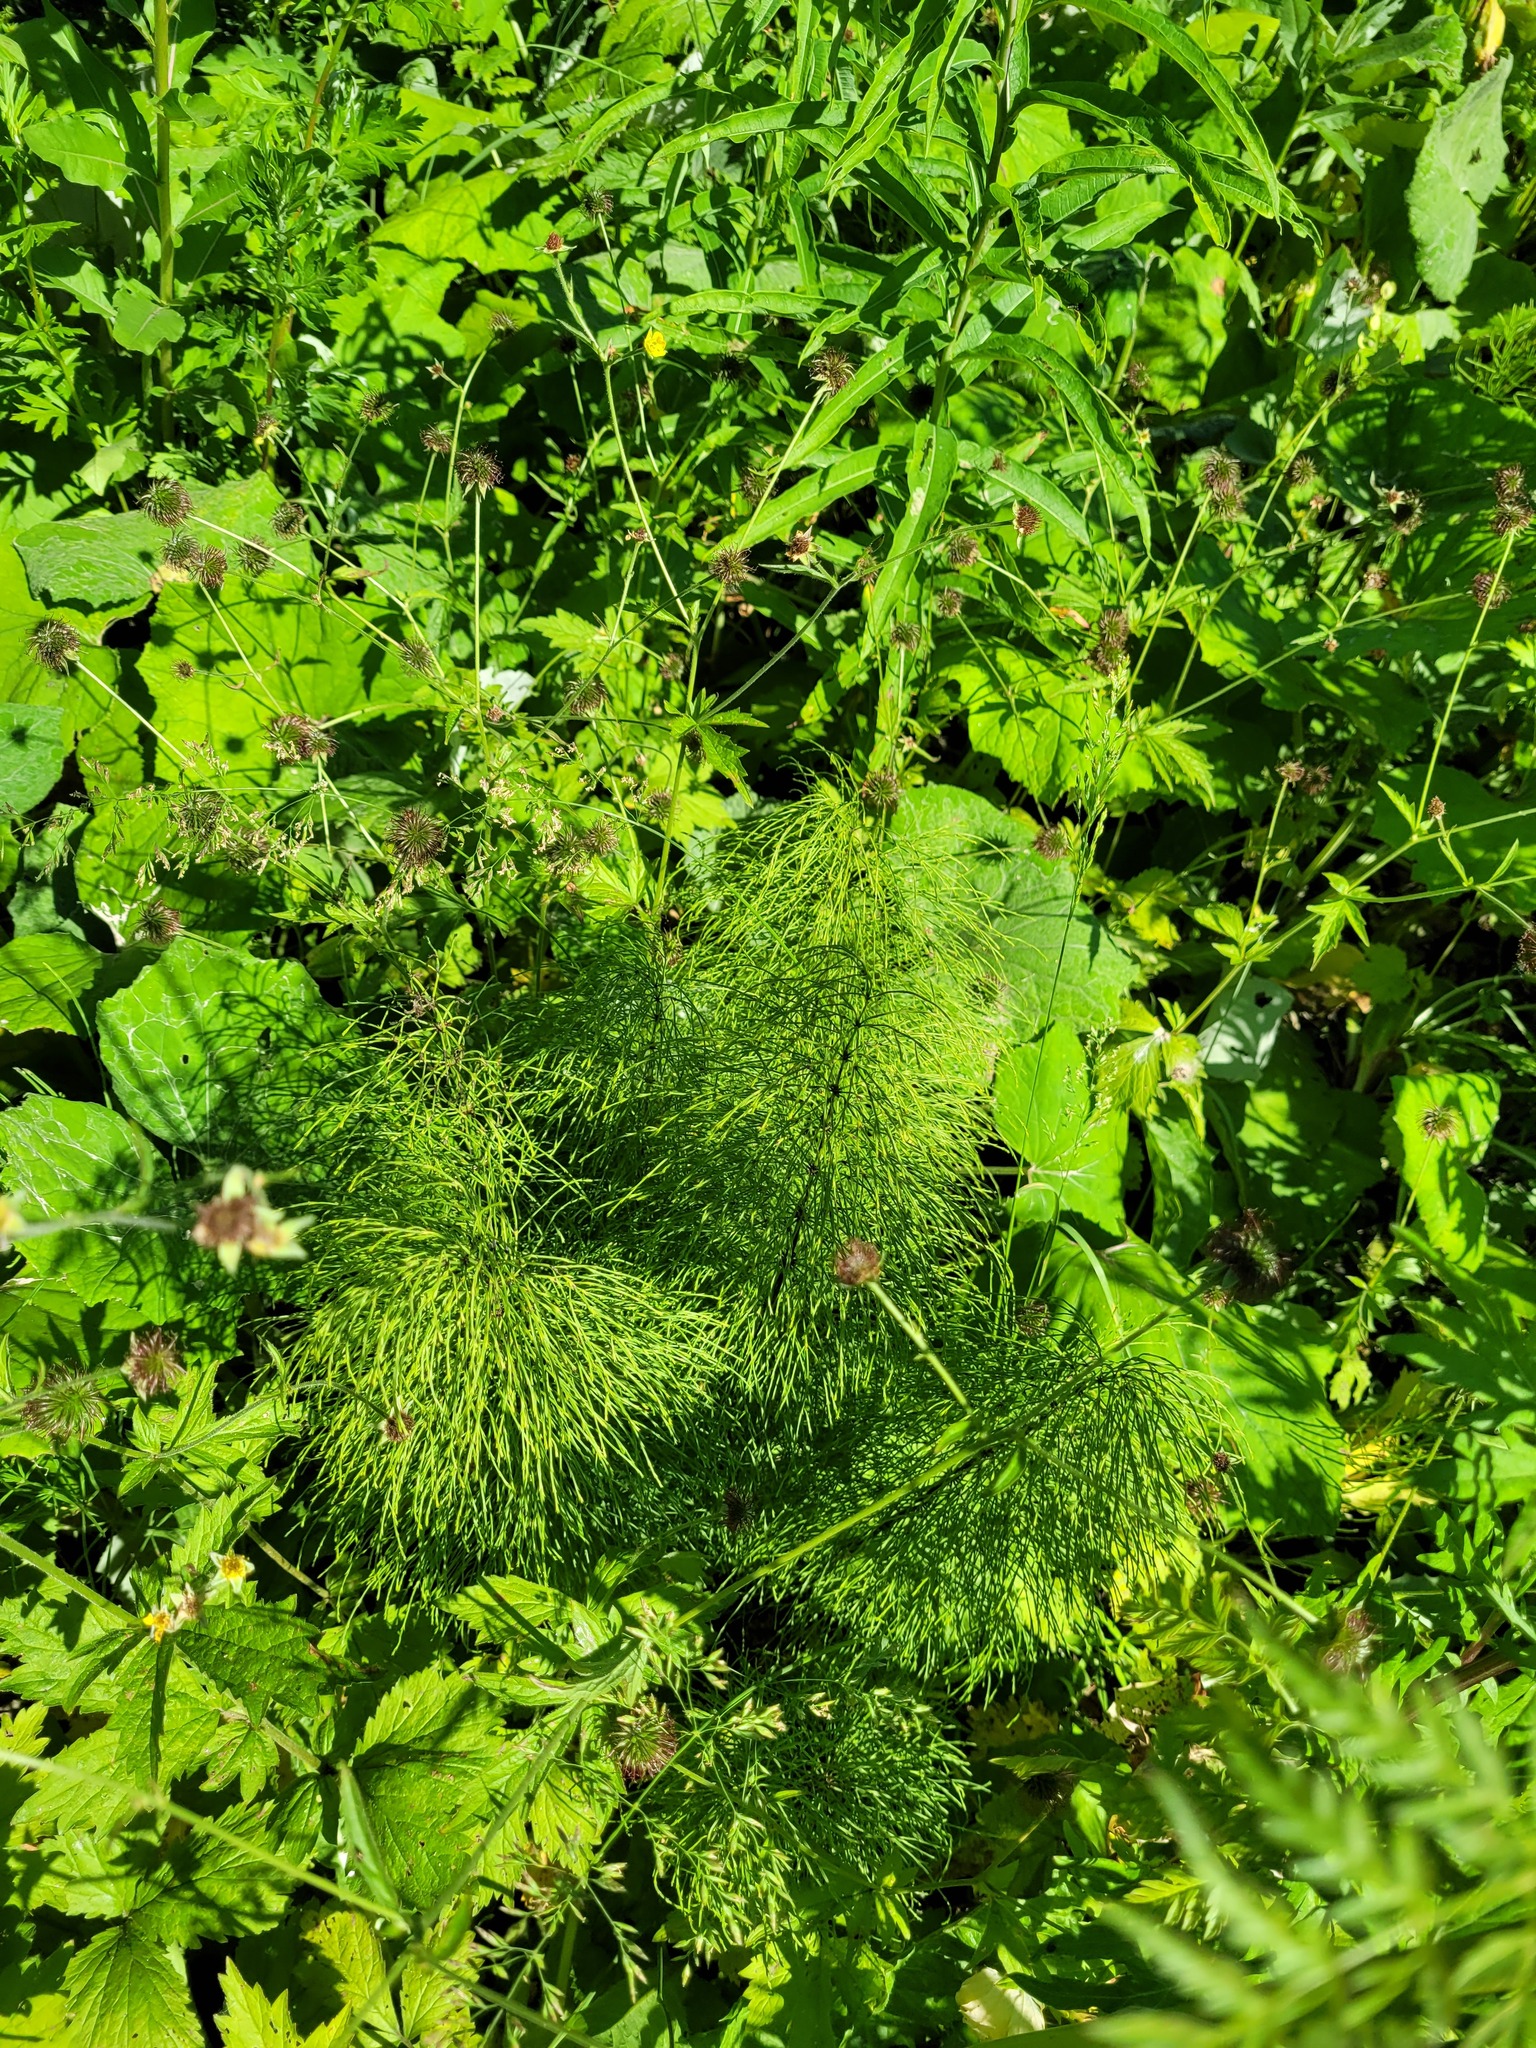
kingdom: Plantae
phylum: Tracheophyta
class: Polypodiopsida
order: Equisetales
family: Equisetaceae
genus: Equisetum
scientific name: Equisetum sylvaticum
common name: Wood horsetail
